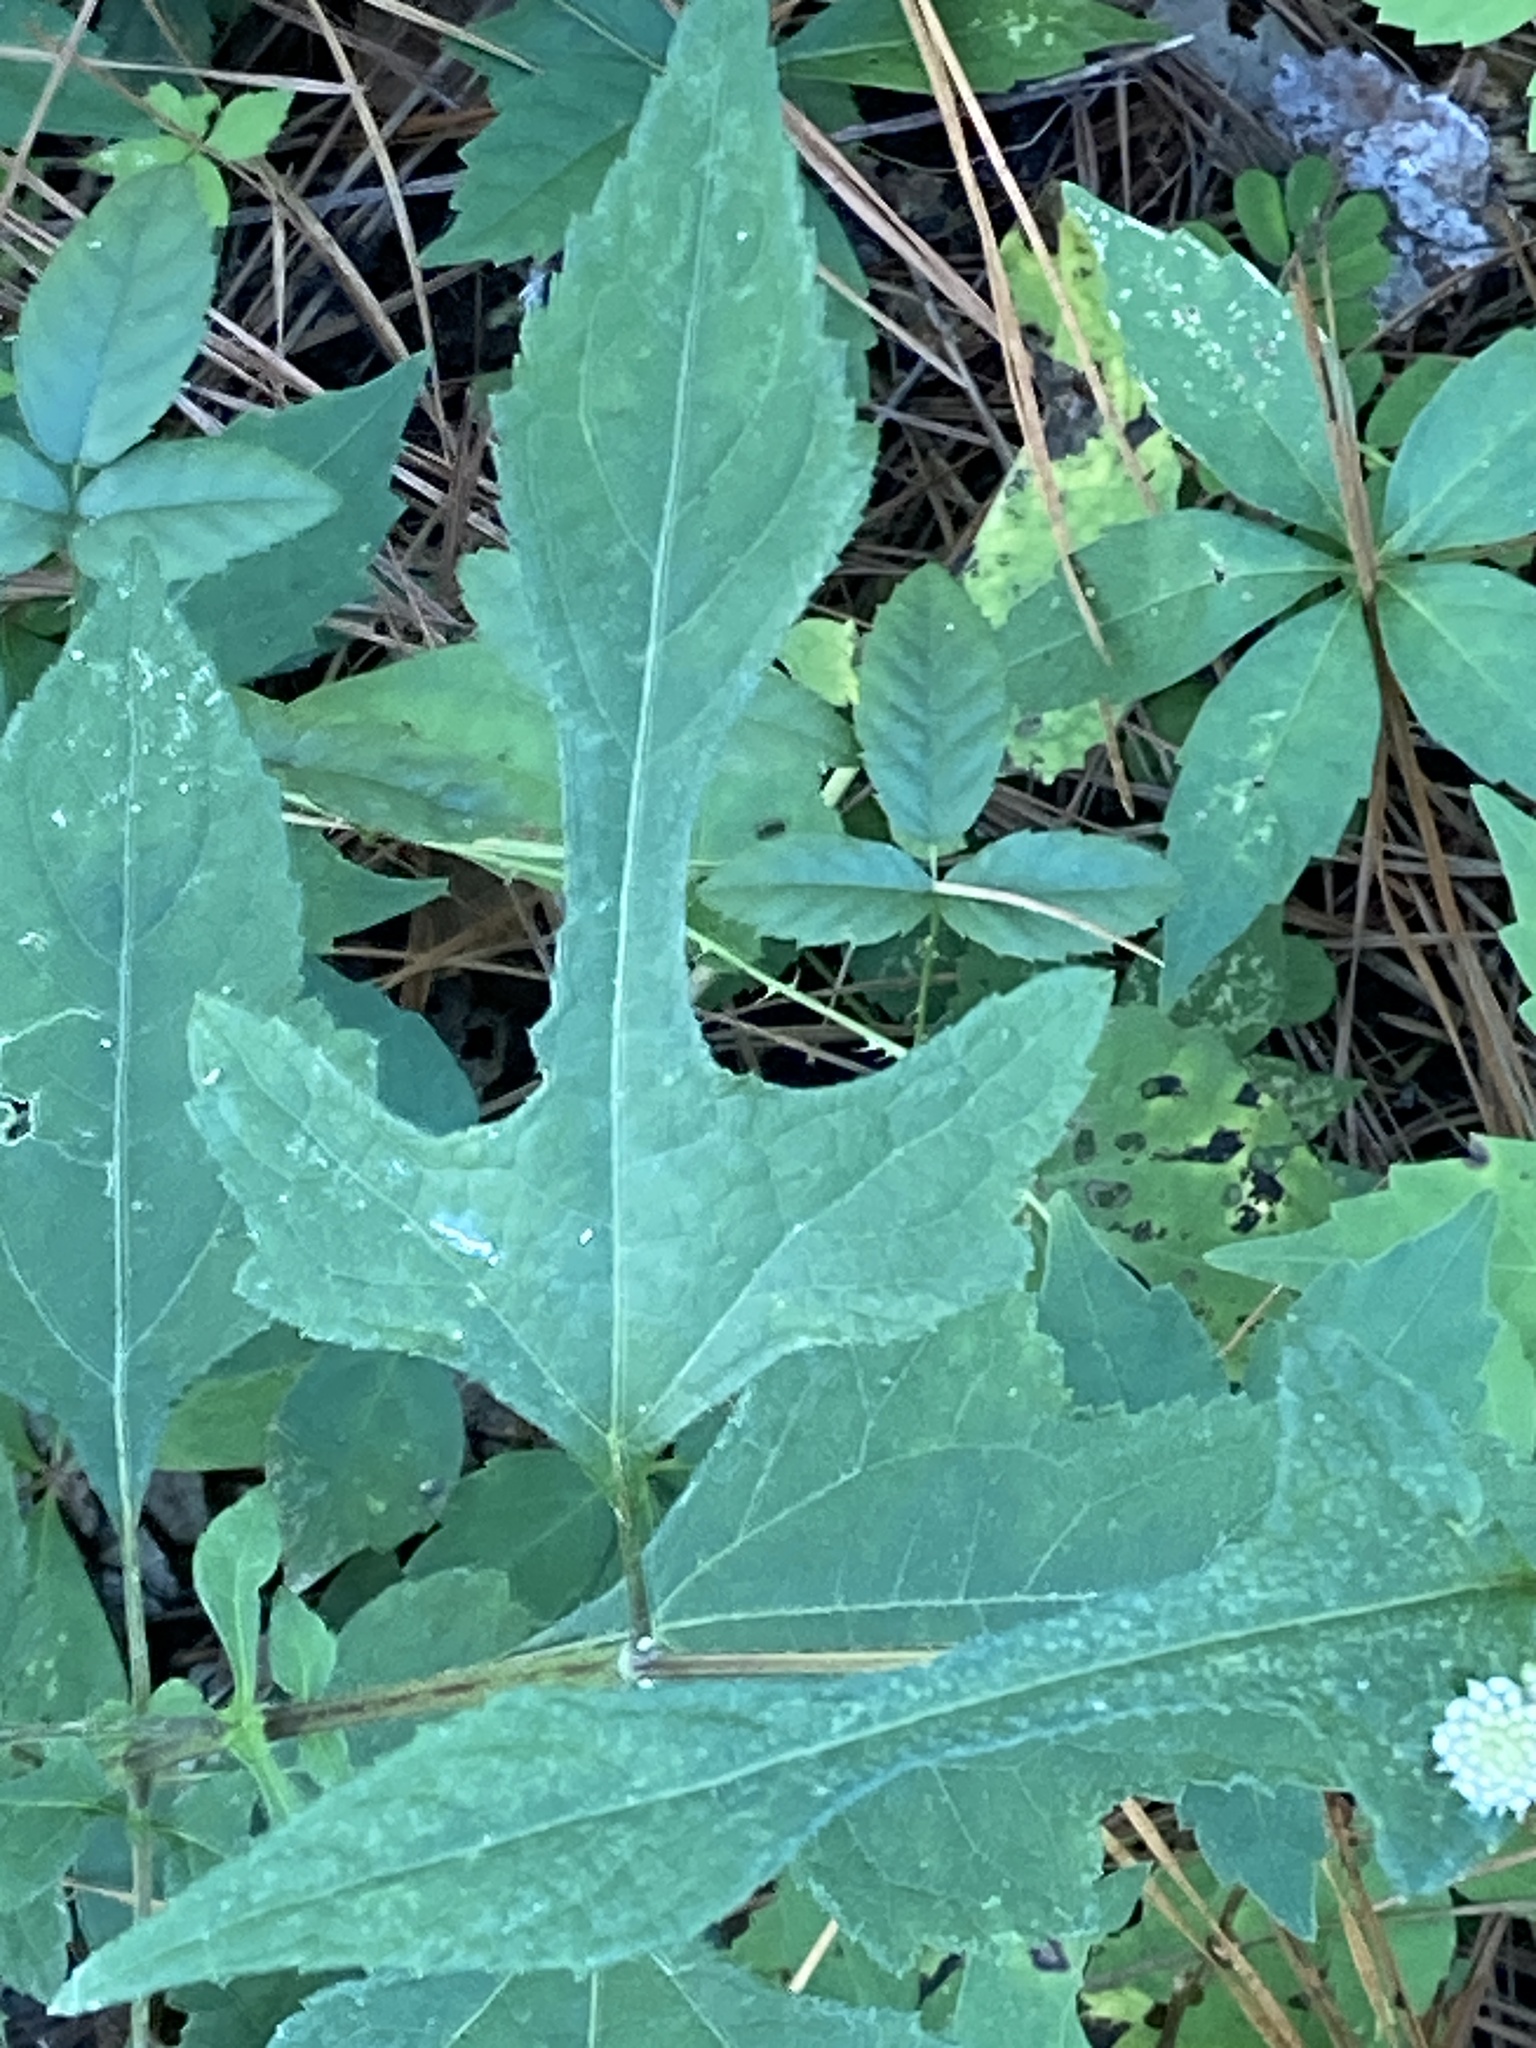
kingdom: Plantae
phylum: Tracheophyta
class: Magnoliopsida
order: Asterales
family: Asteraceae
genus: Melanthera
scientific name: Melanthera nivea
